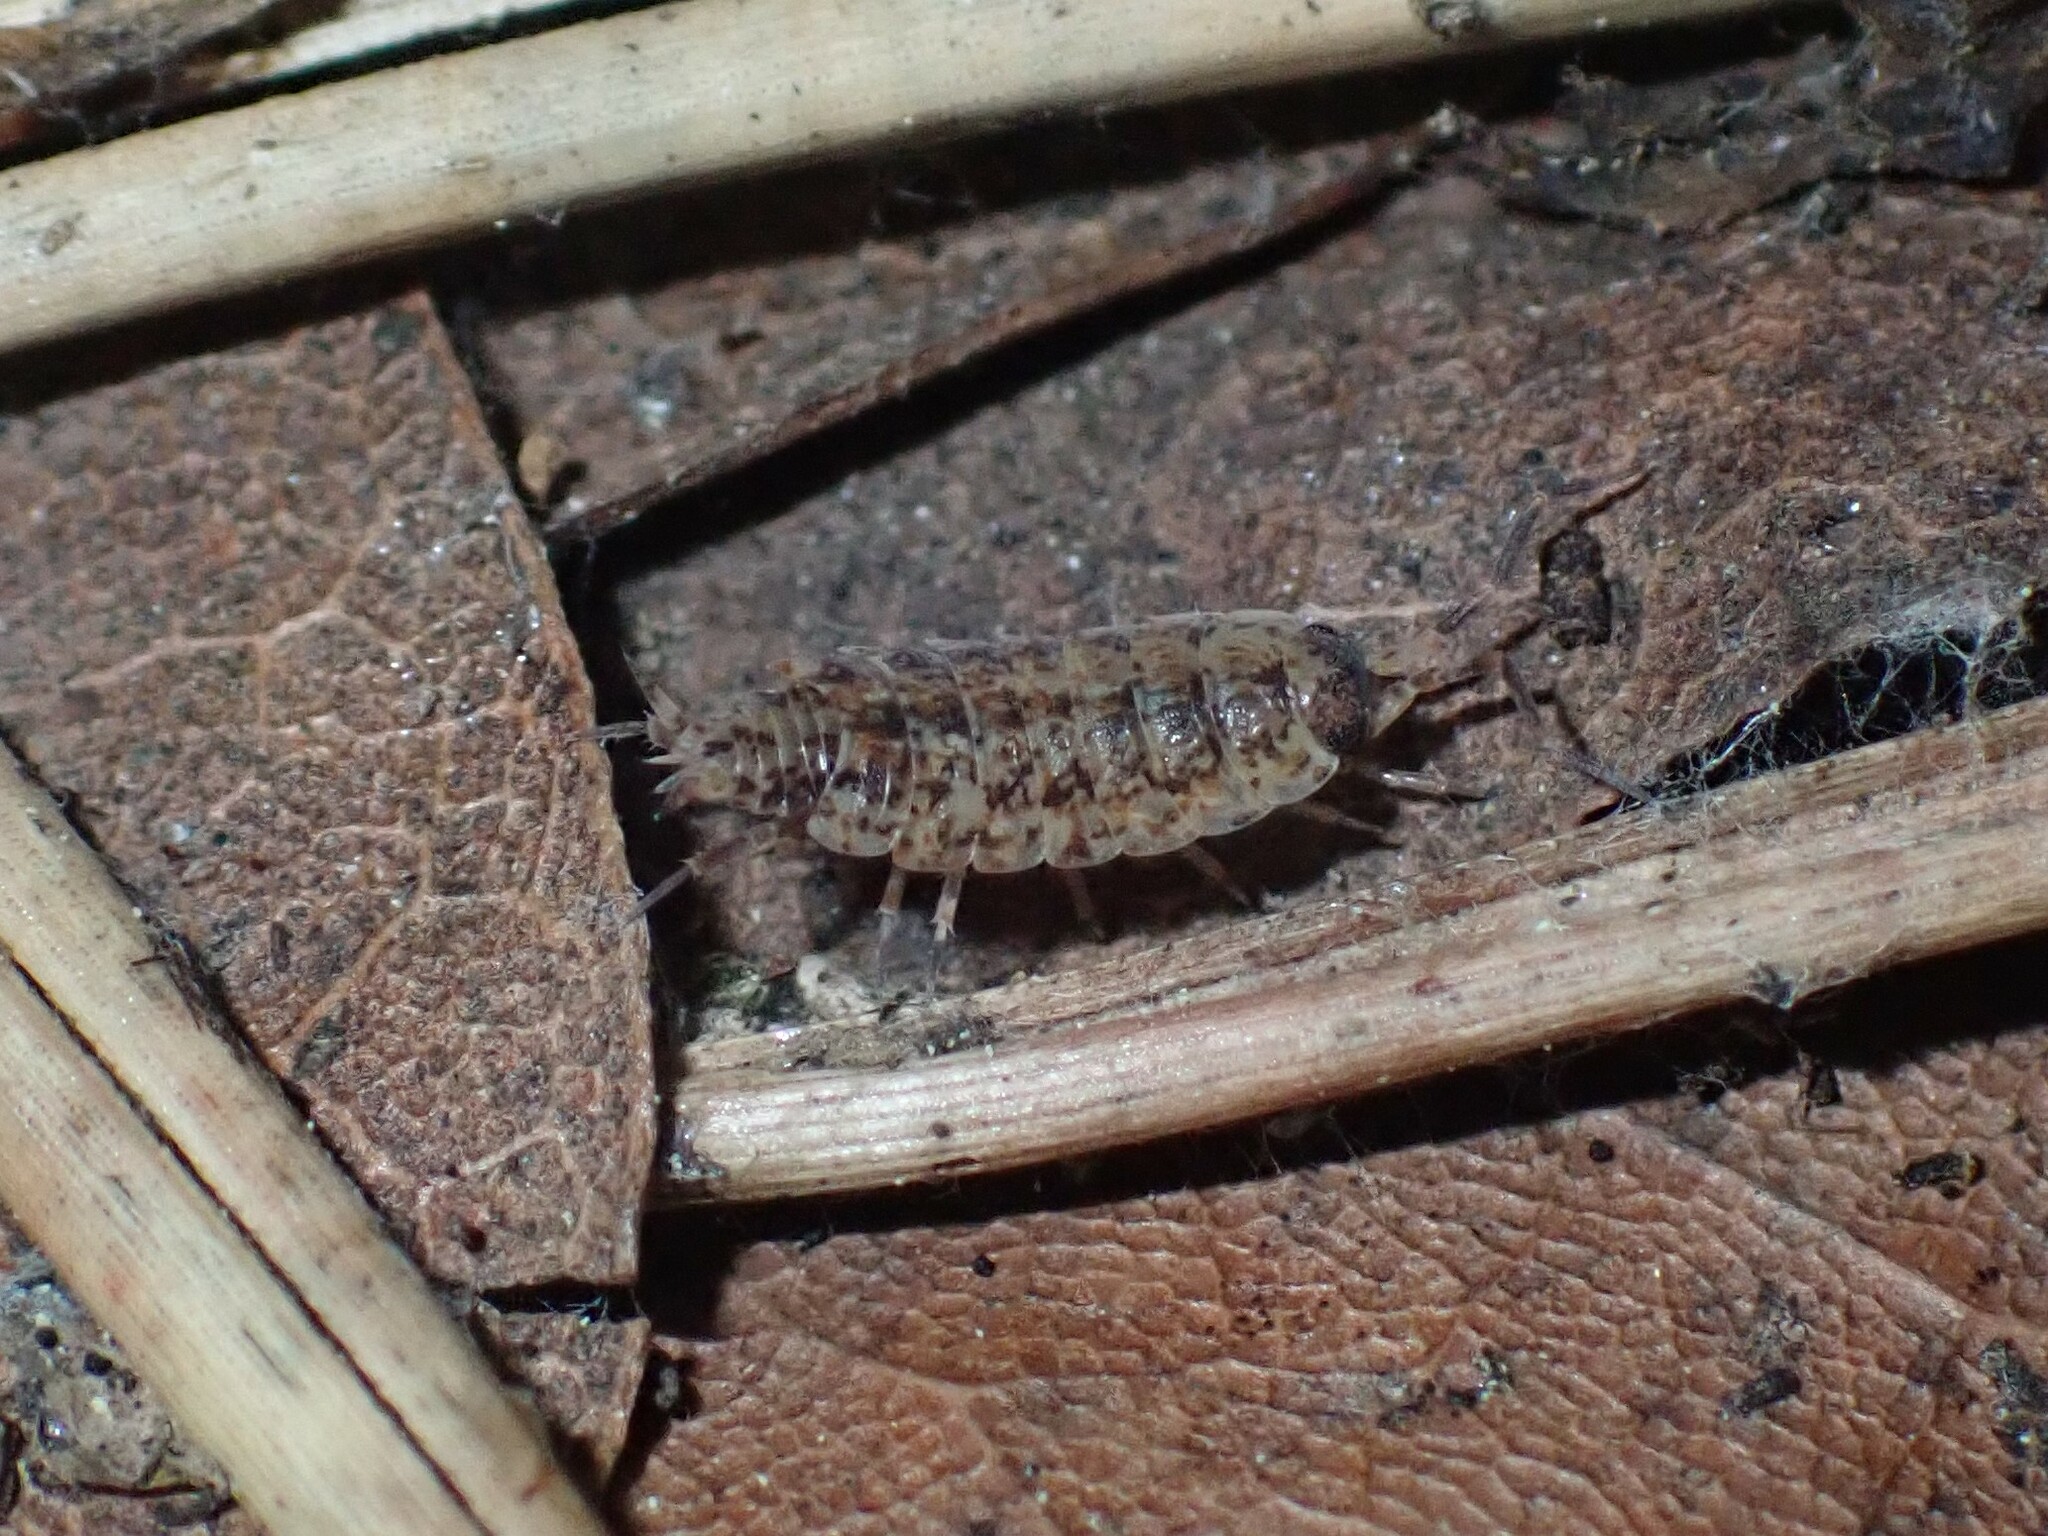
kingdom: Animalia
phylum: Arthropoda
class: Malacostraca
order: Isopoda
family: Porcellionidae
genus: Porcellionides
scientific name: Porcellionides cingendus
